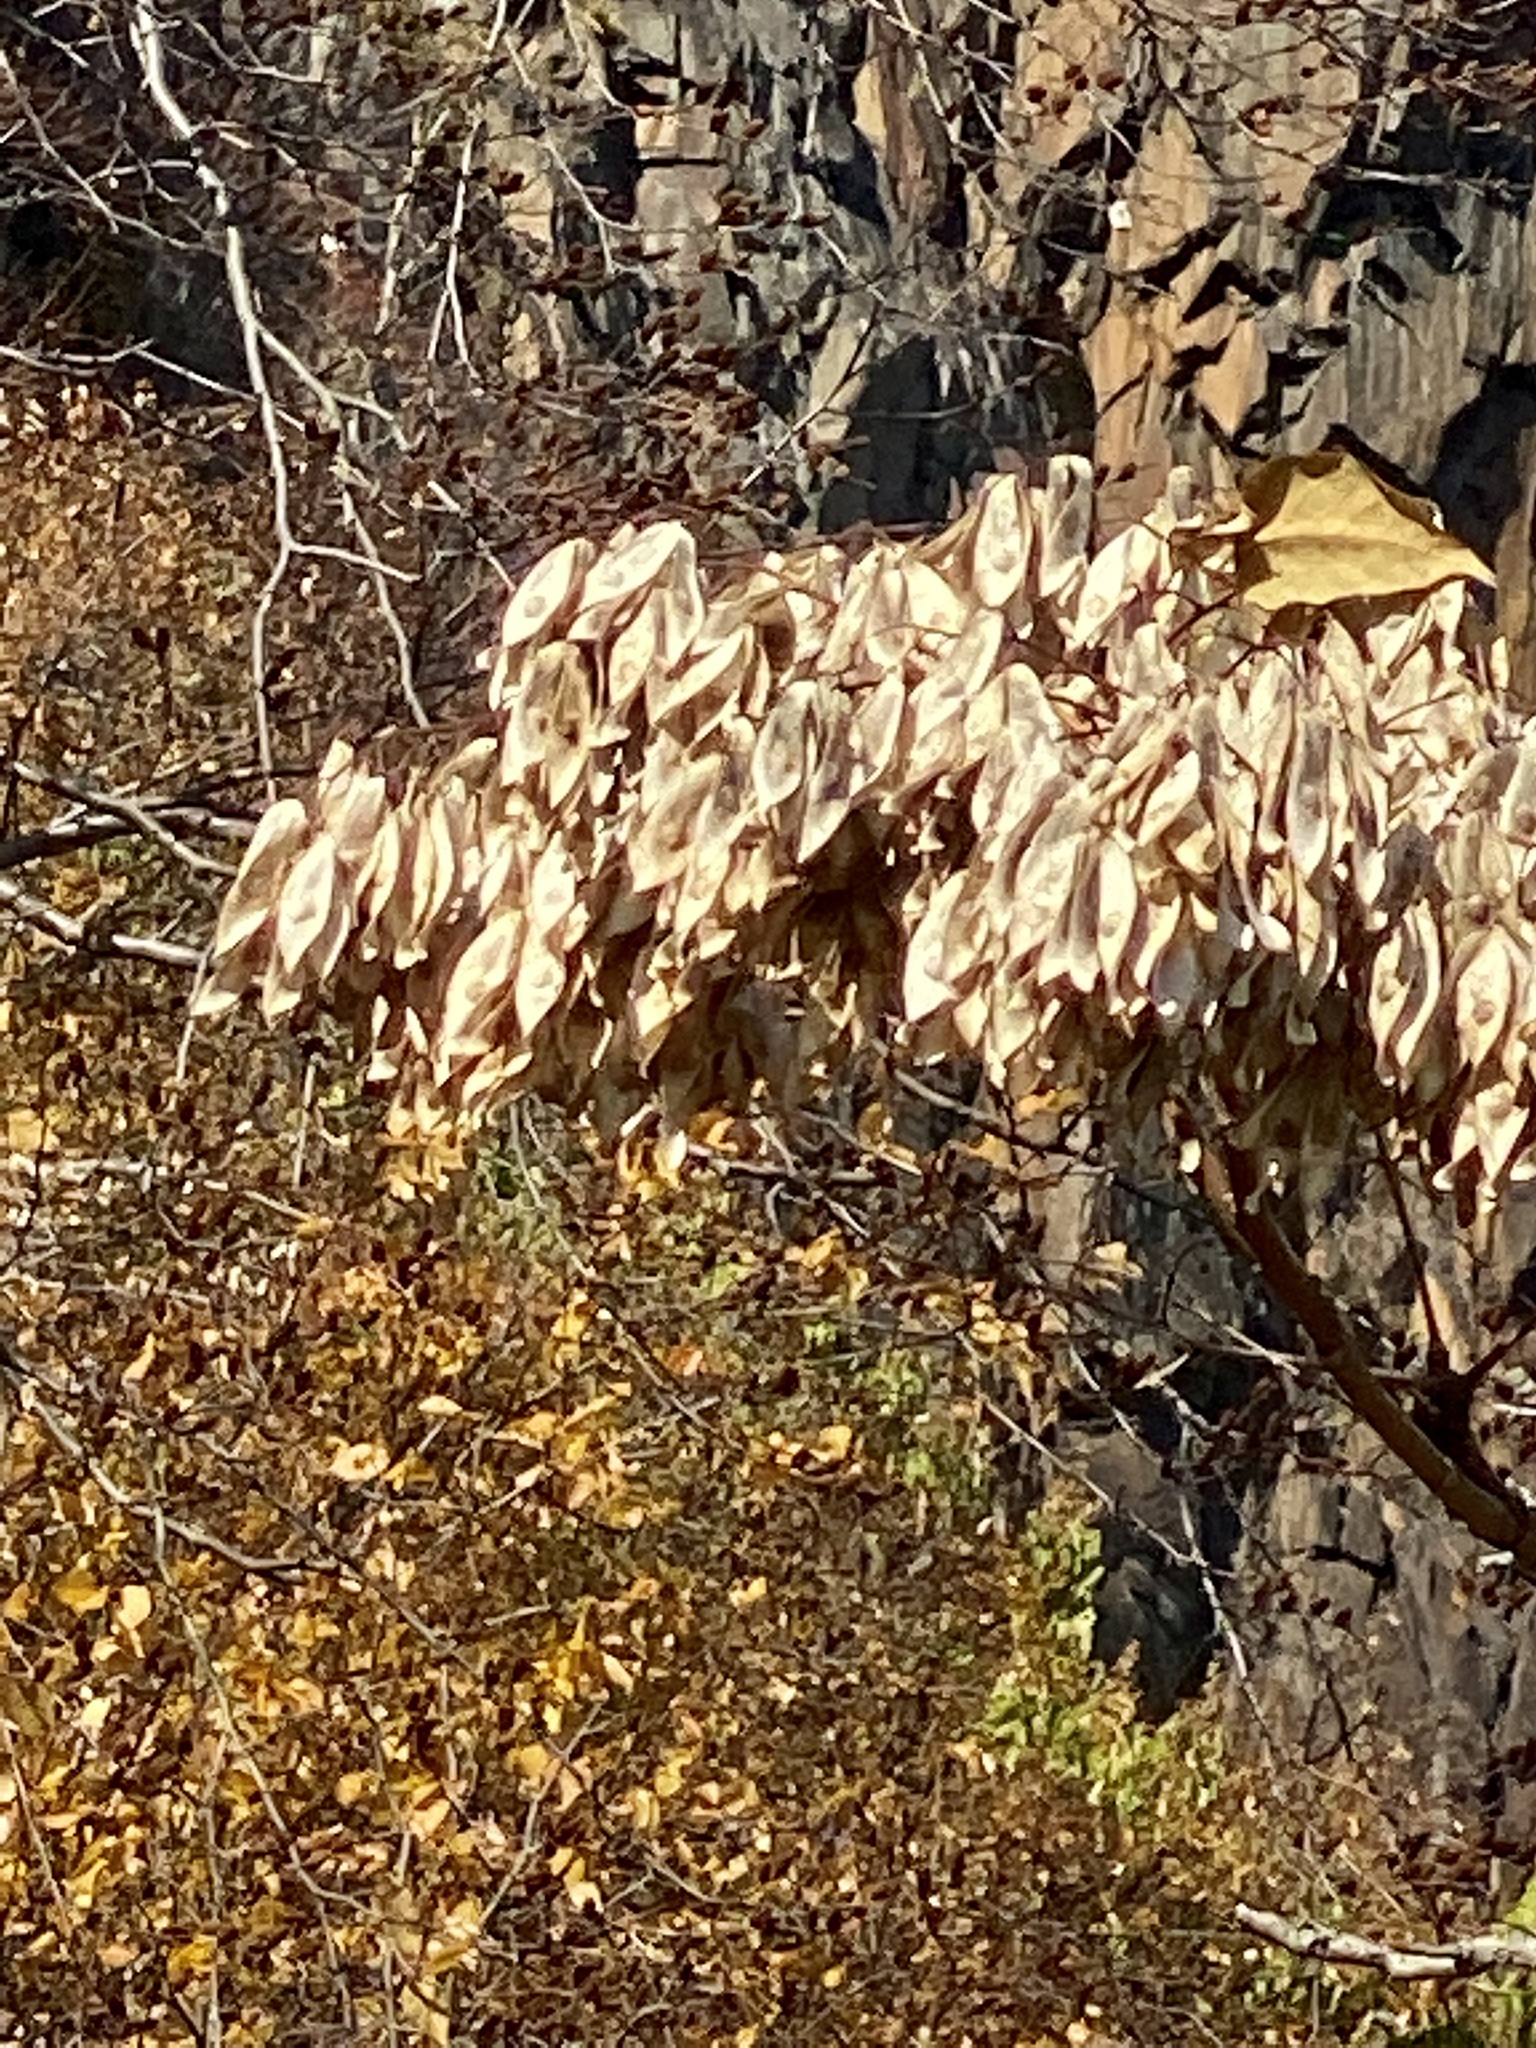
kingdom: Plantae
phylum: Tracheophyta
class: Magnoliopsida
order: Sapindales
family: Simaroubaceae
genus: Ailanthus
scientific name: Ailanthus altissima
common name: Tree-of-heaven
